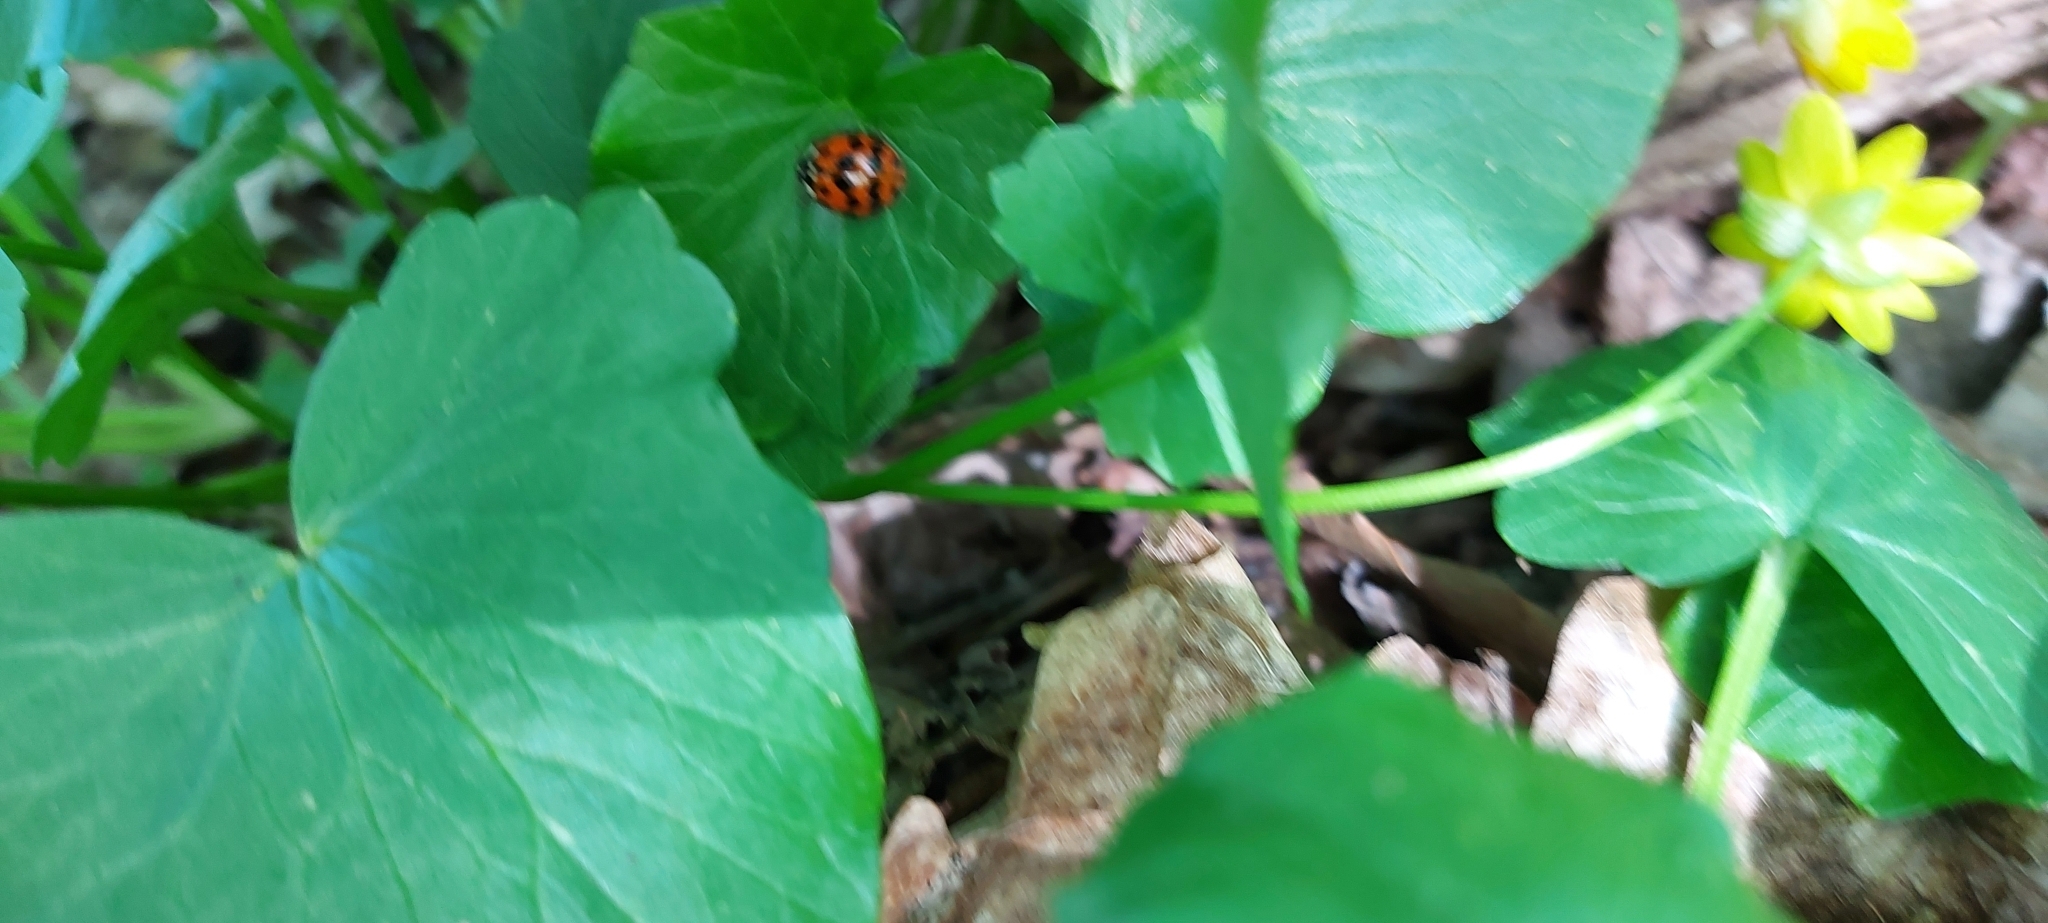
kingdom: Animalia
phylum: Arthropoda
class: Insecta
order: Coleoptera
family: Coccinellidae
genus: Harmonia
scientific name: Harmonia axyridis
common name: Harlequin ladybird
